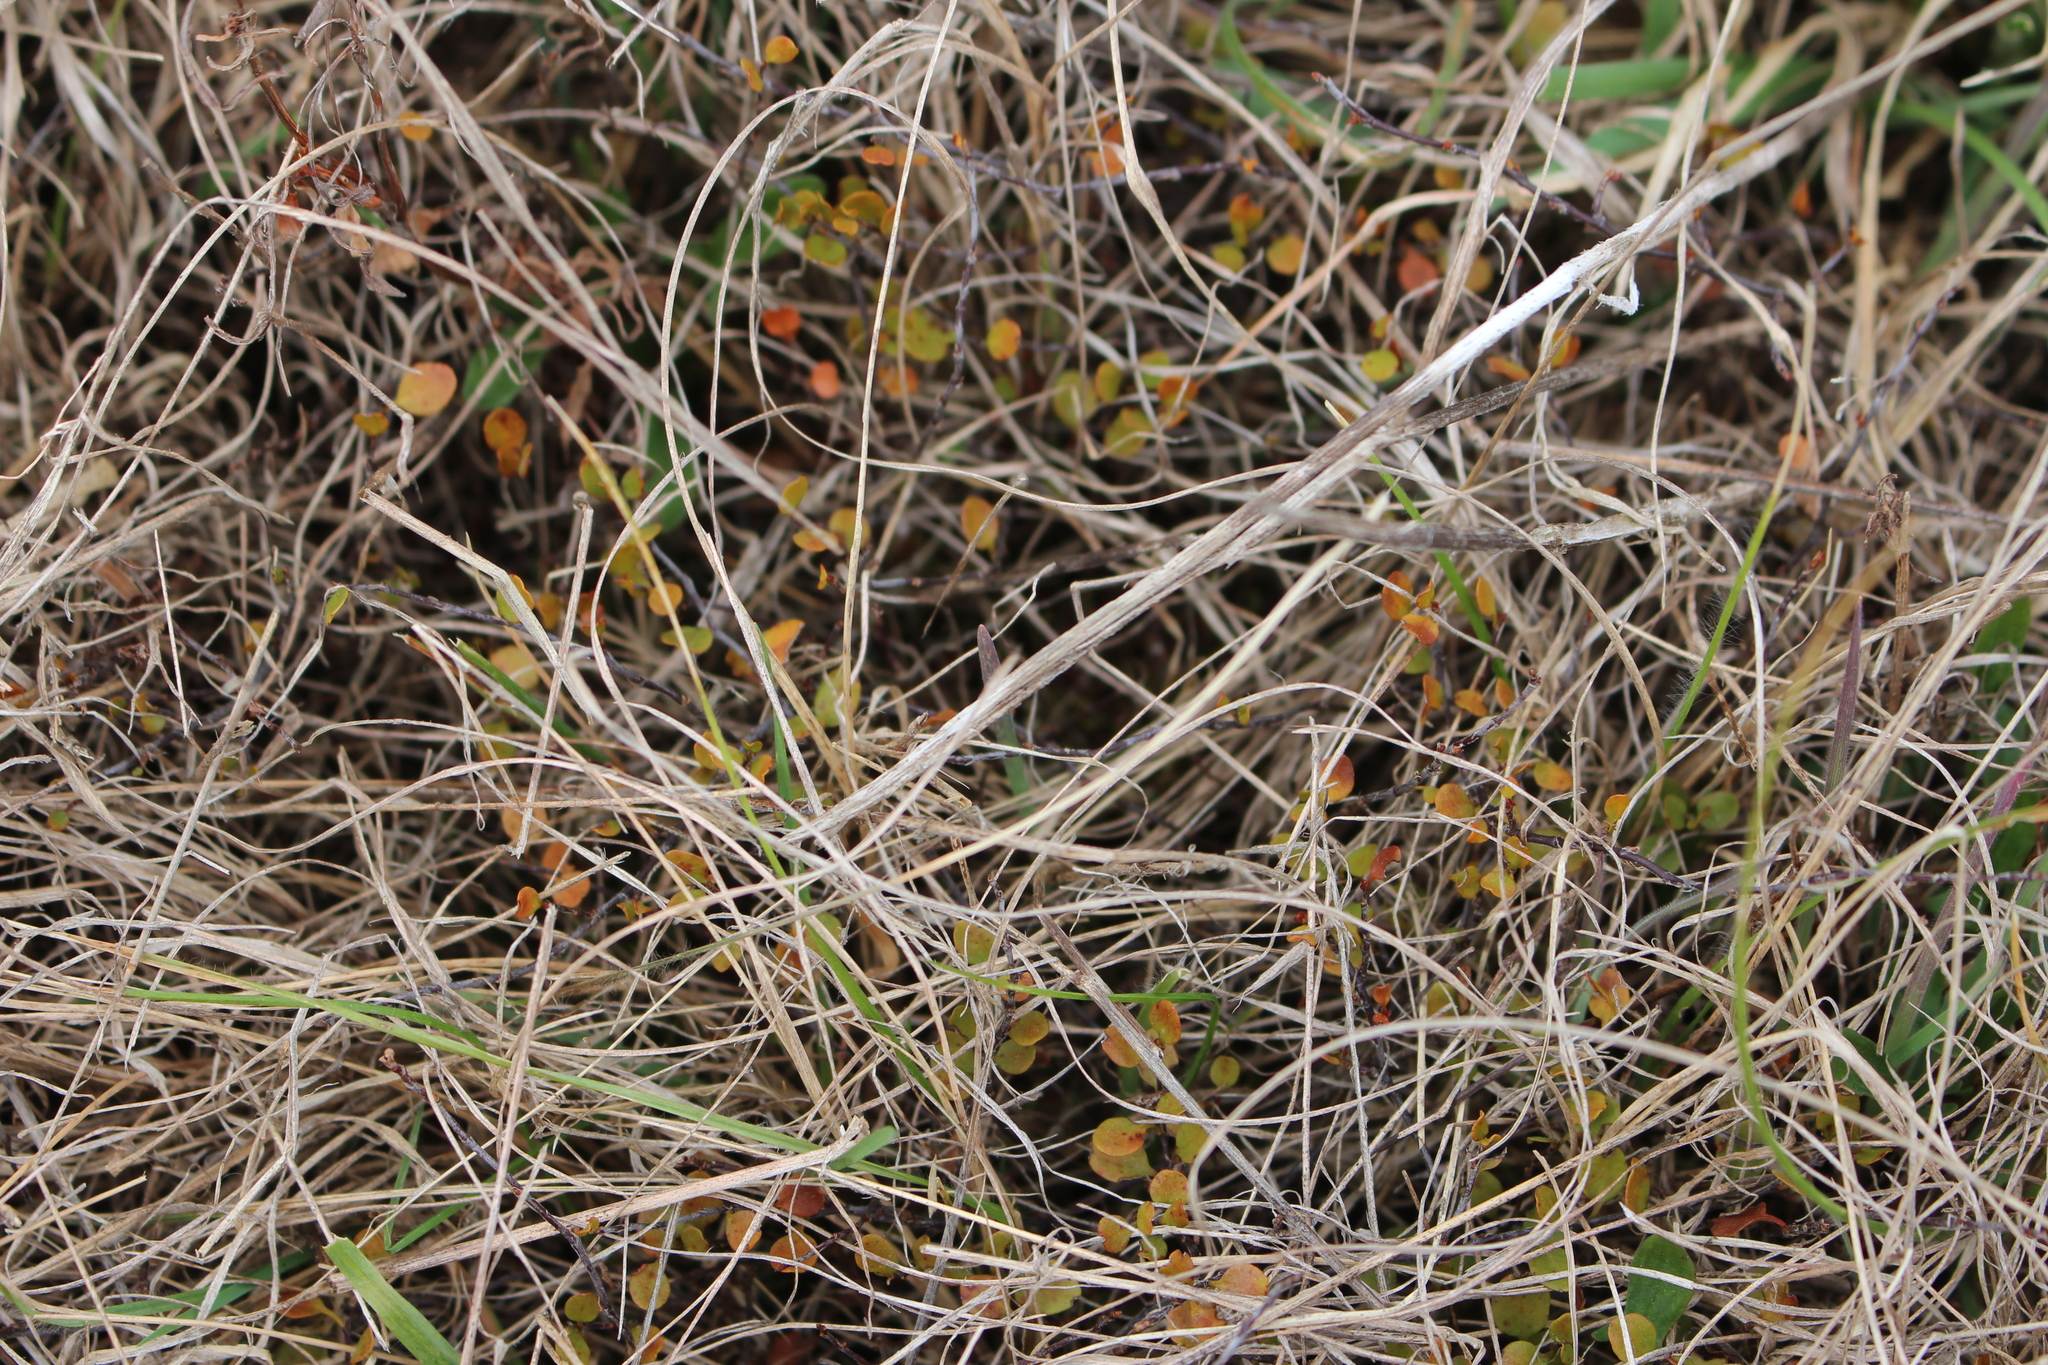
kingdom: Plantae
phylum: Tracheophyta
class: Magnoliopsida
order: Rosales
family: Rhamnaceae
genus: Discaria
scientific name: Discaria toumatou
